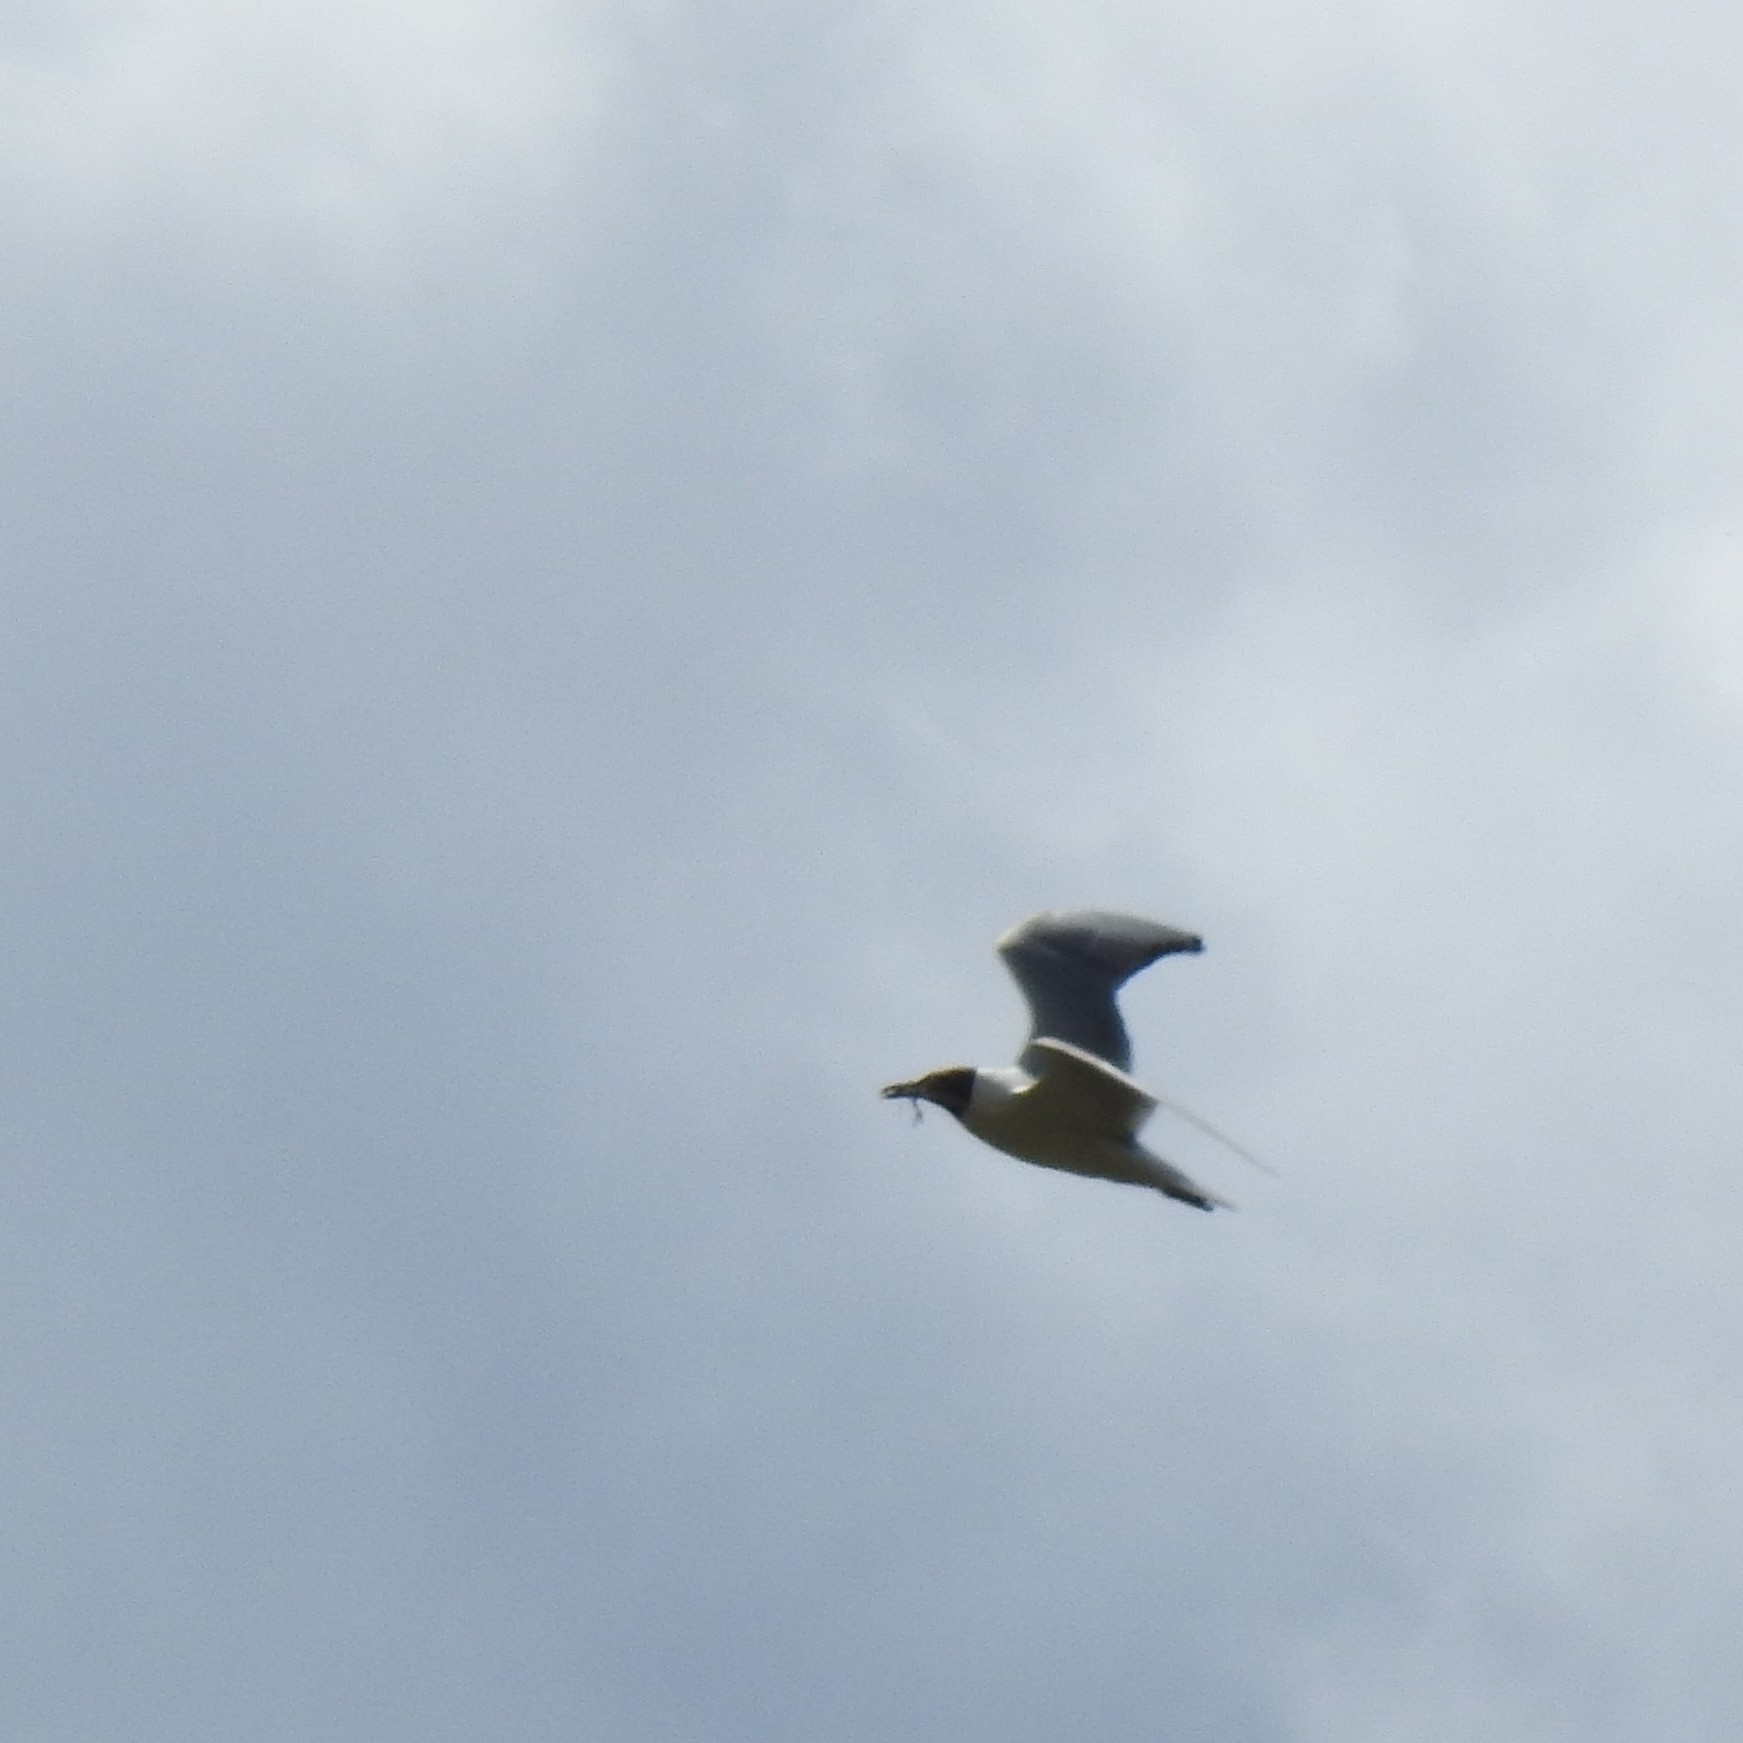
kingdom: Animalia
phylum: Chordata
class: Aves
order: Charadriiformes
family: Laridae
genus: Chroicocephalus
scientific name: Chroicocephalus ridibundus
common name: Black-headed gull
